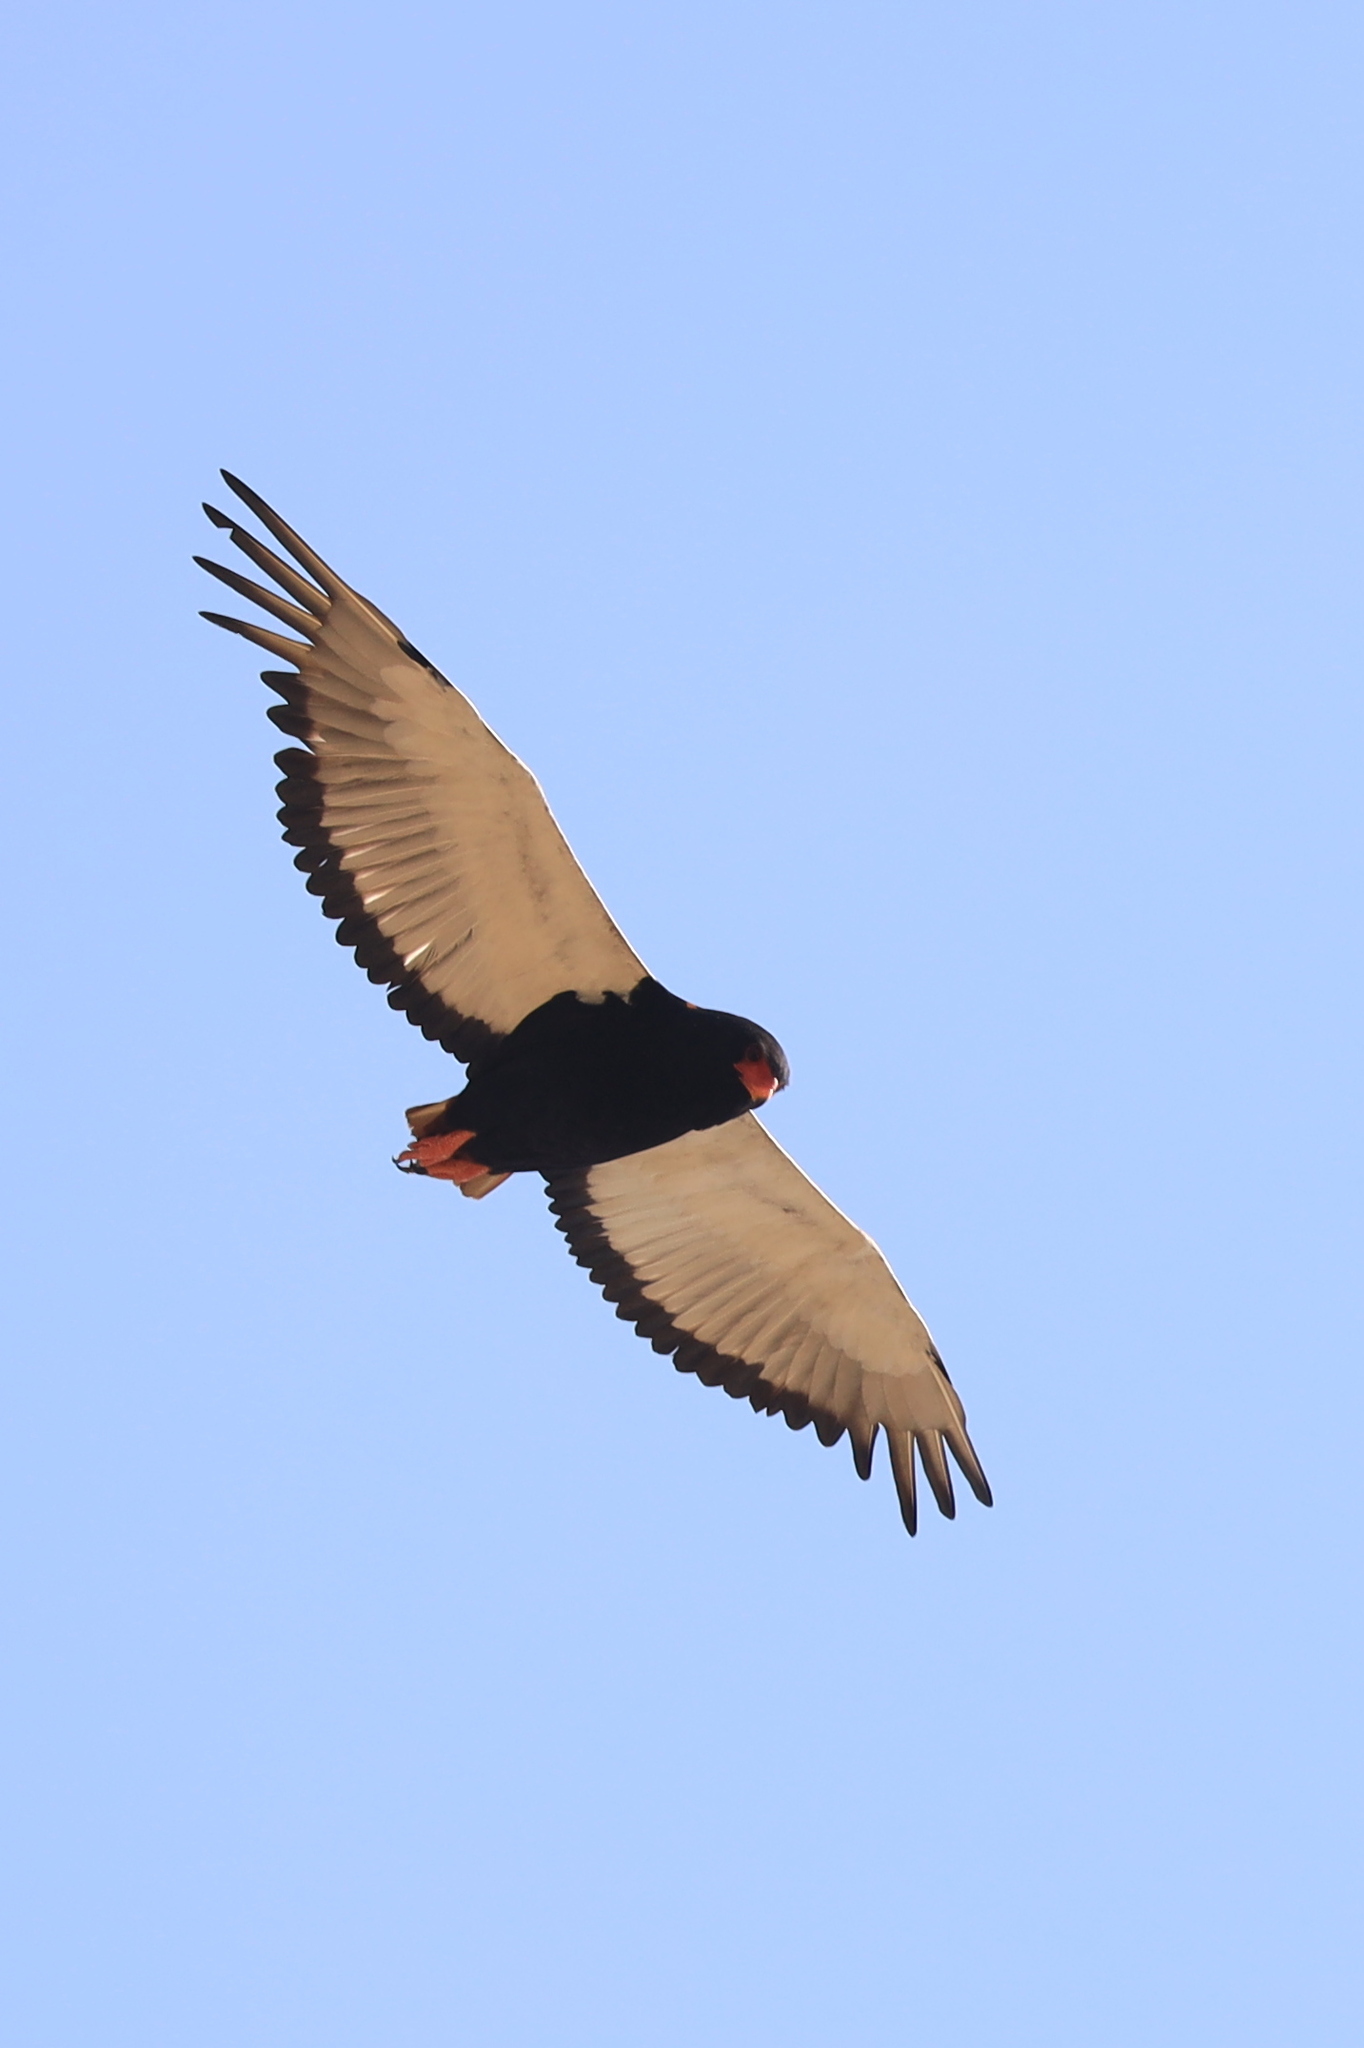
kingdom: Animalia
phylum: Chordata
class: Aves
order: Accipitriformes
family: Accipitridae
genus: Terathopius
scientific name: Terathopius ecaudatus
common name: Bateleur
